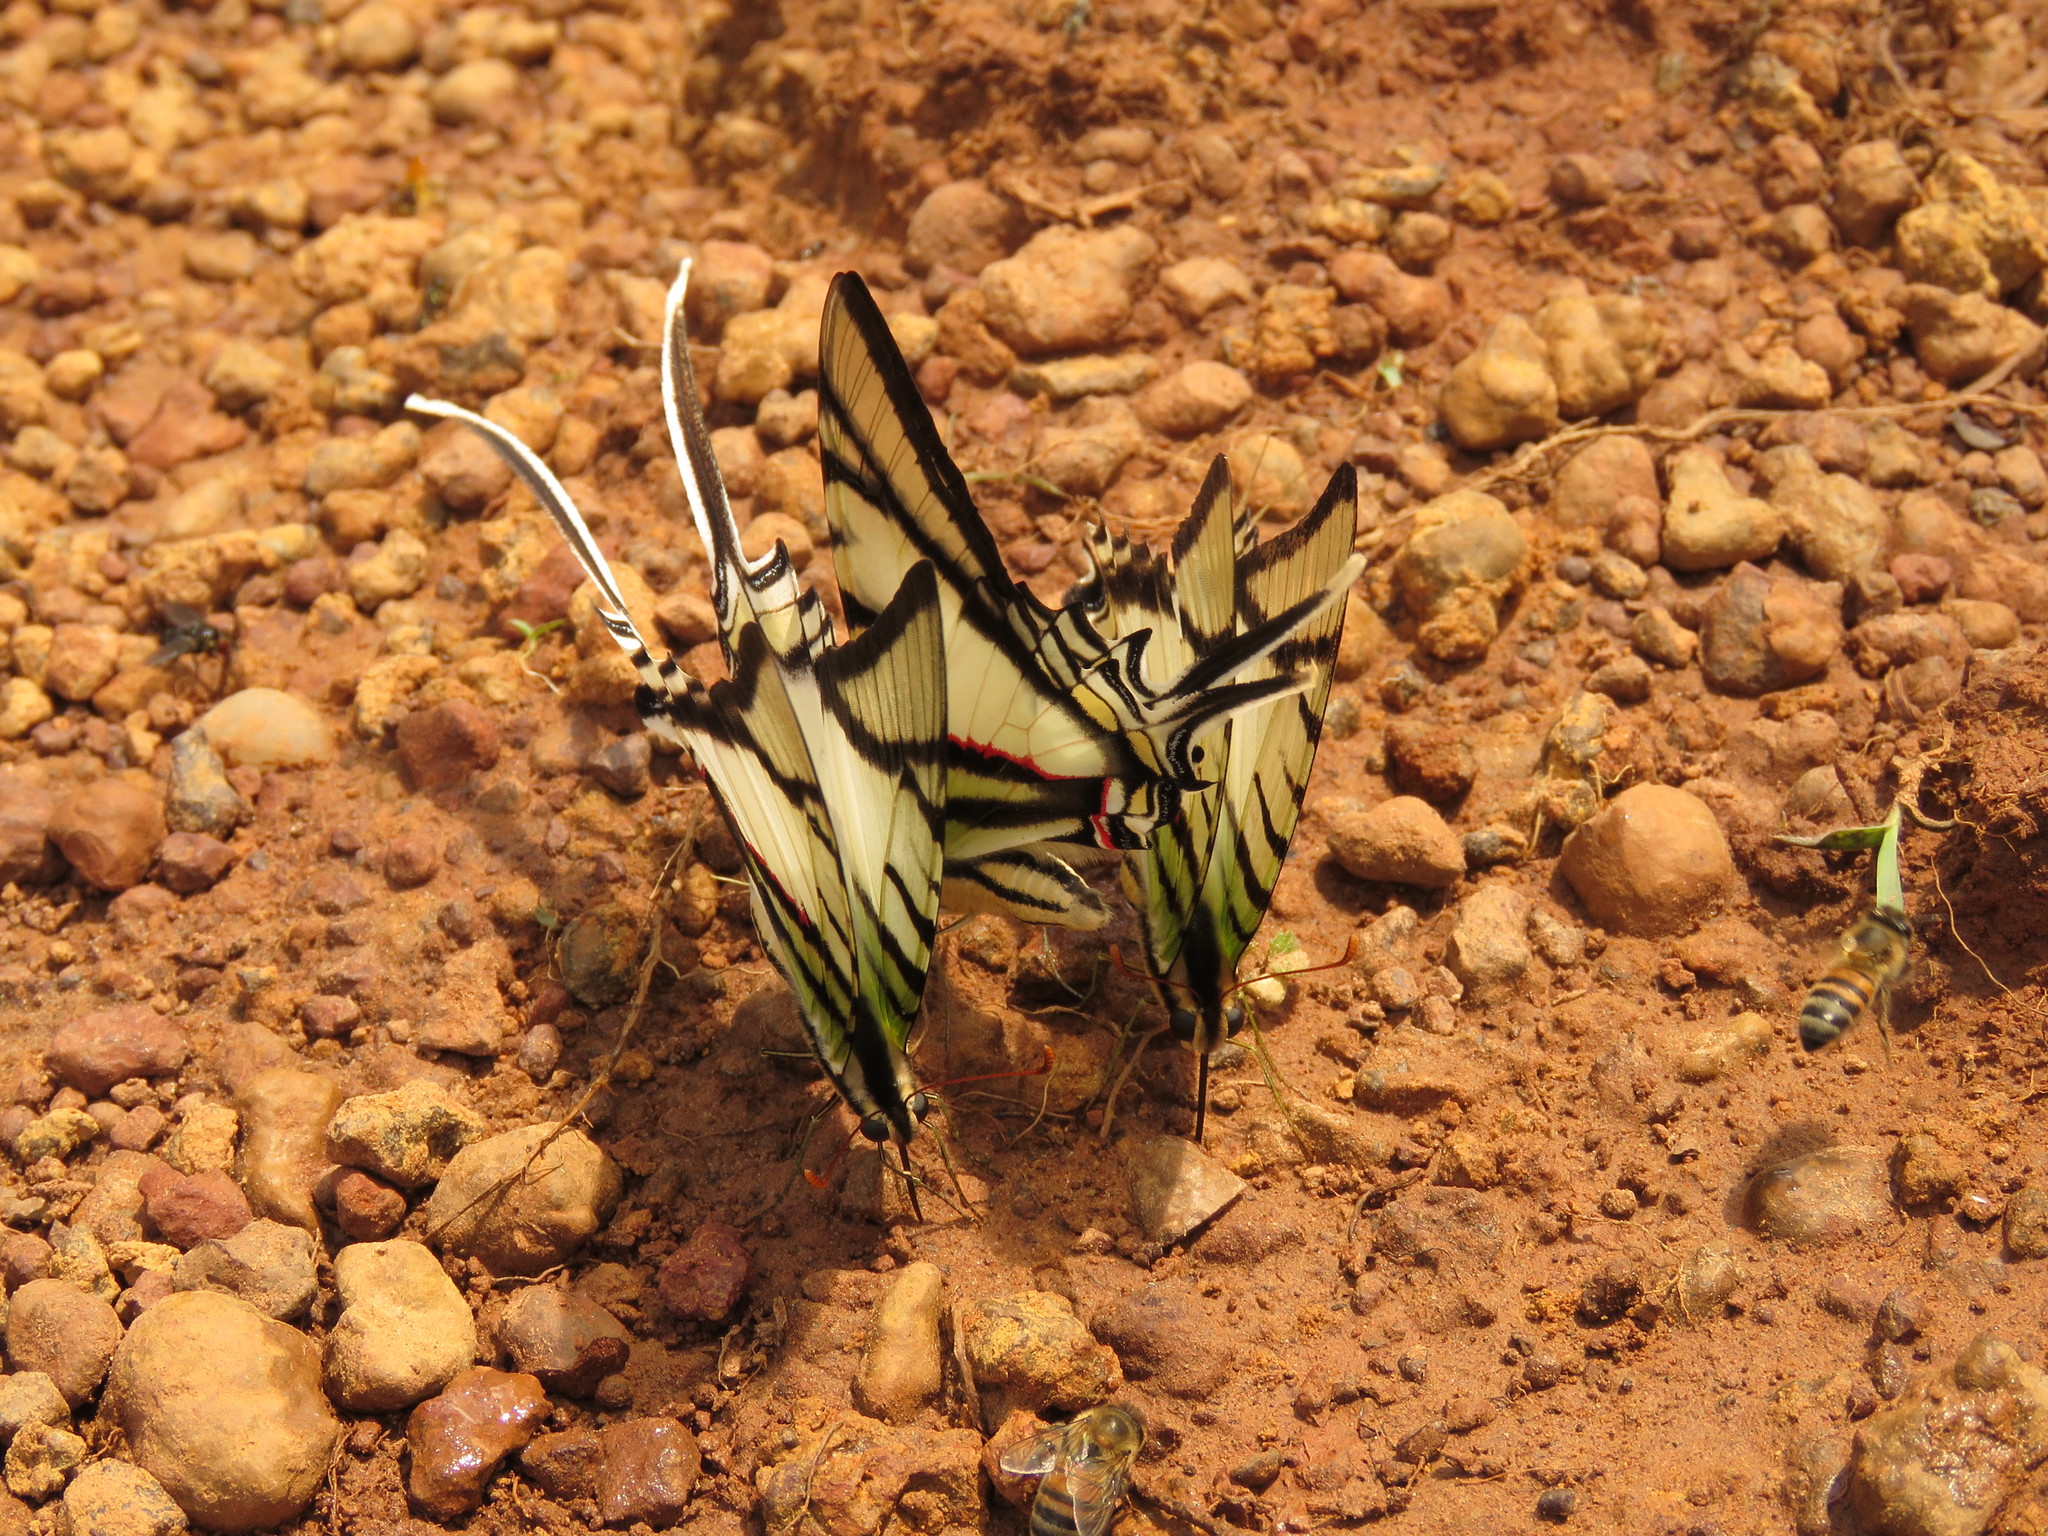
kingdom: Animalia
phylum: Arthropoda
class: Insecta
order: Lepidoptera
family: Papilionidae
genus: Protesilaus
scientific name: Protesilaus telesilaus
